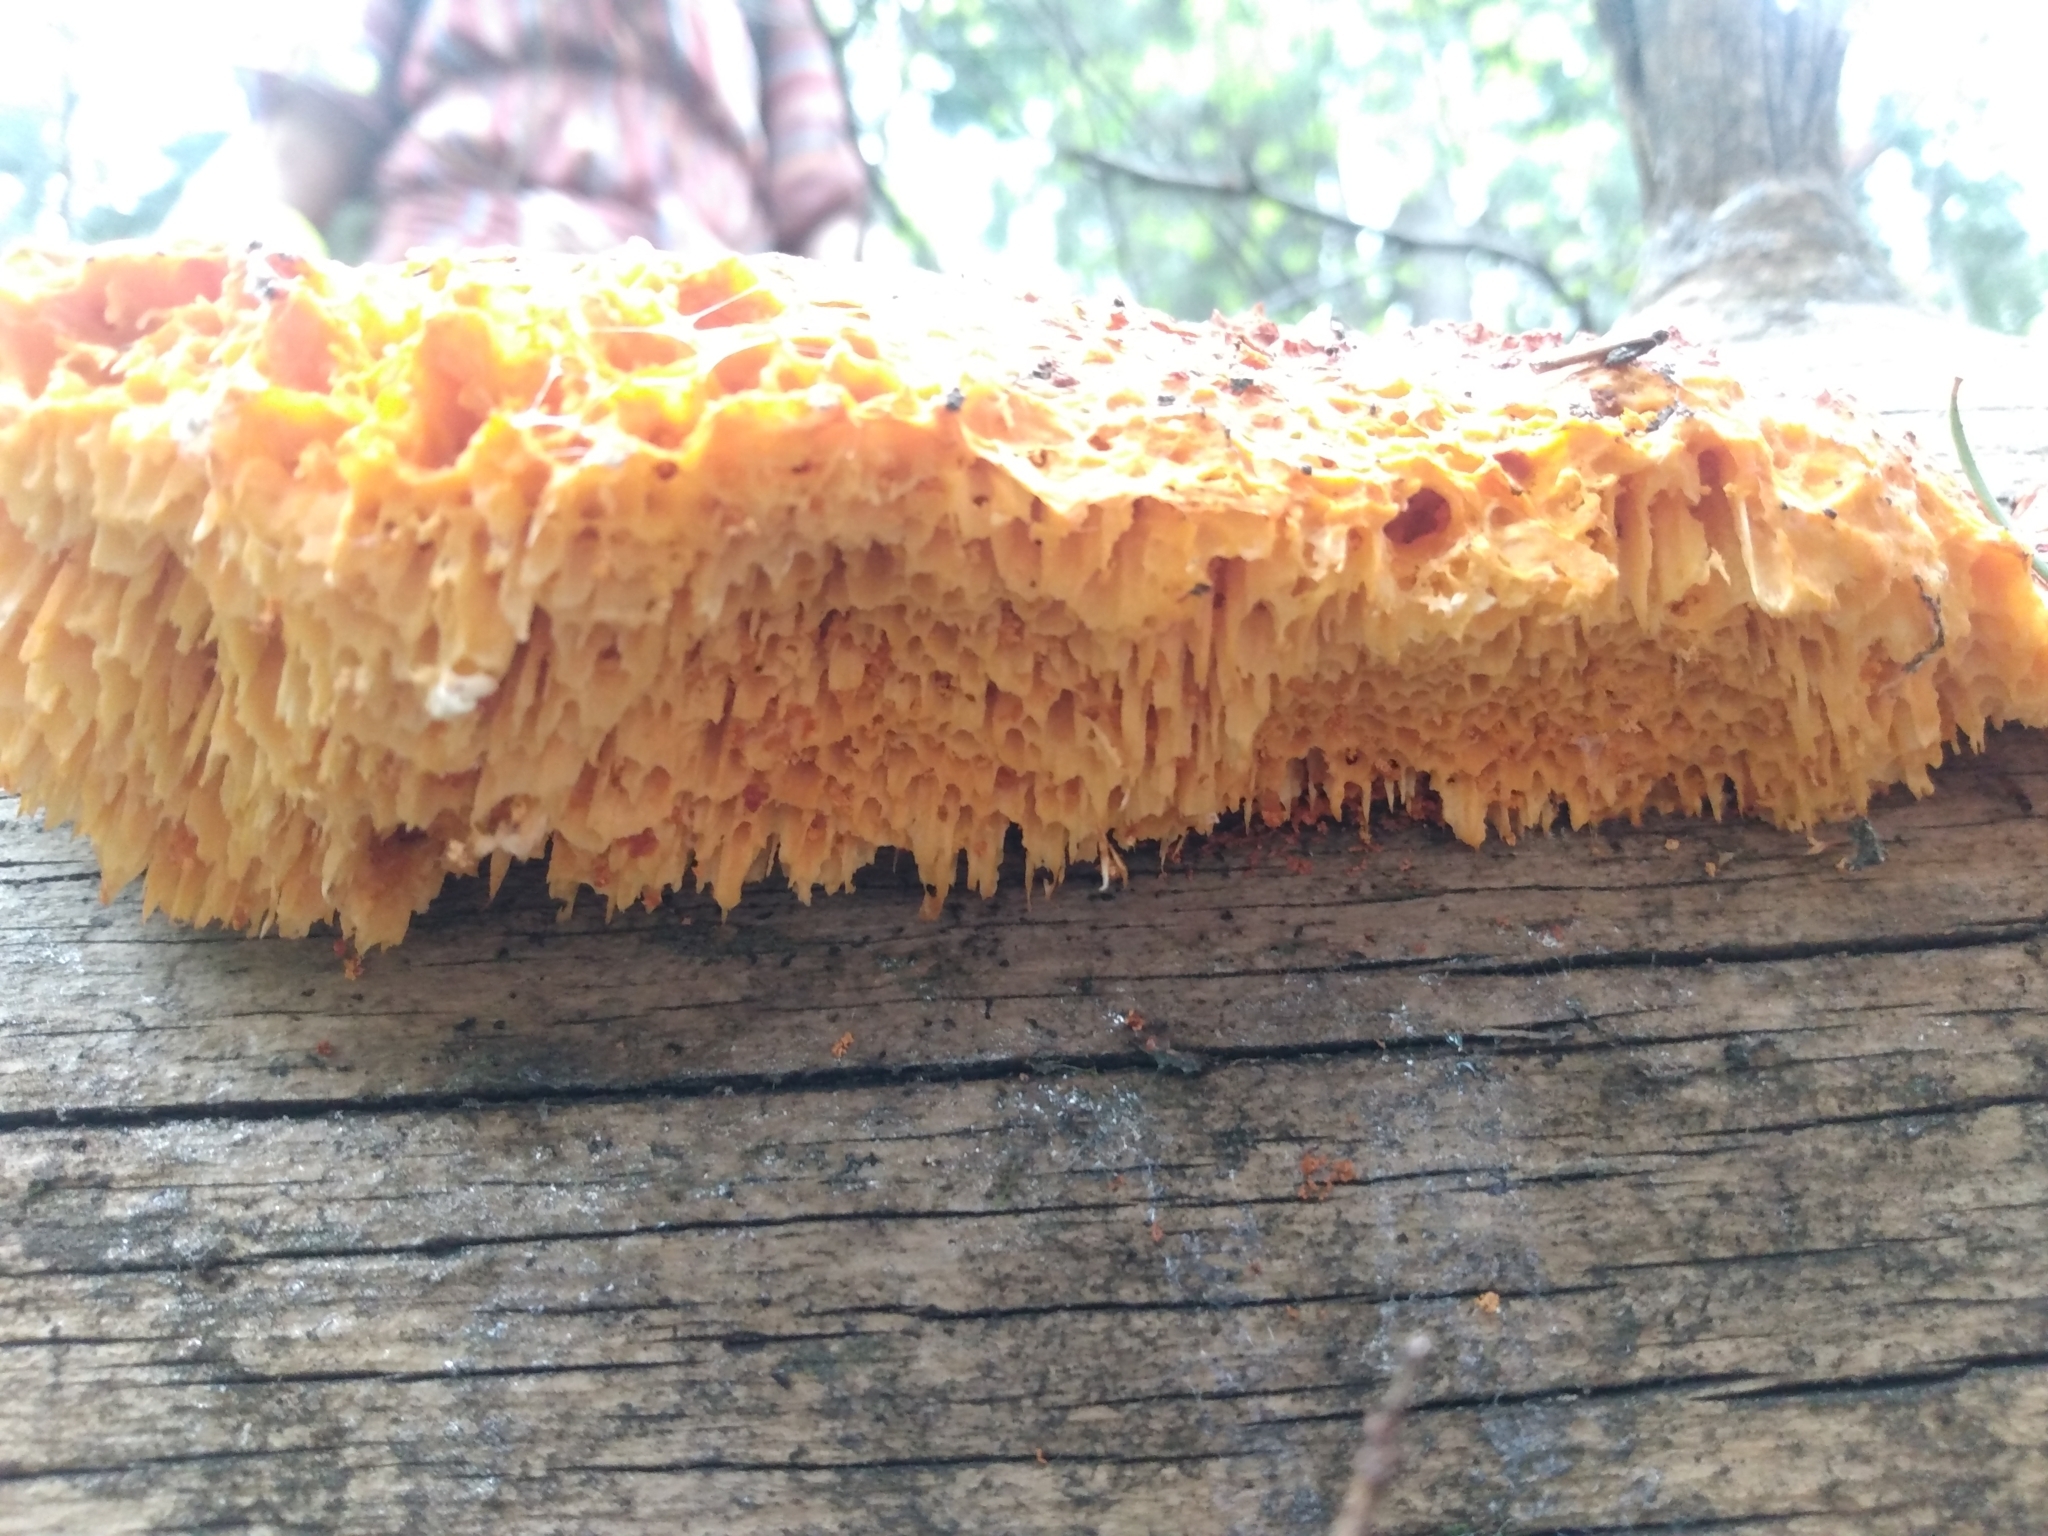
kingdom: Fungi
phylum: Basidiomycota
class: Agaricomycetes
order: Polyporales
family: Pycnoporellaceae
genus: Pycnoporellus
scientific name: Pycnoporellus alboluteus
